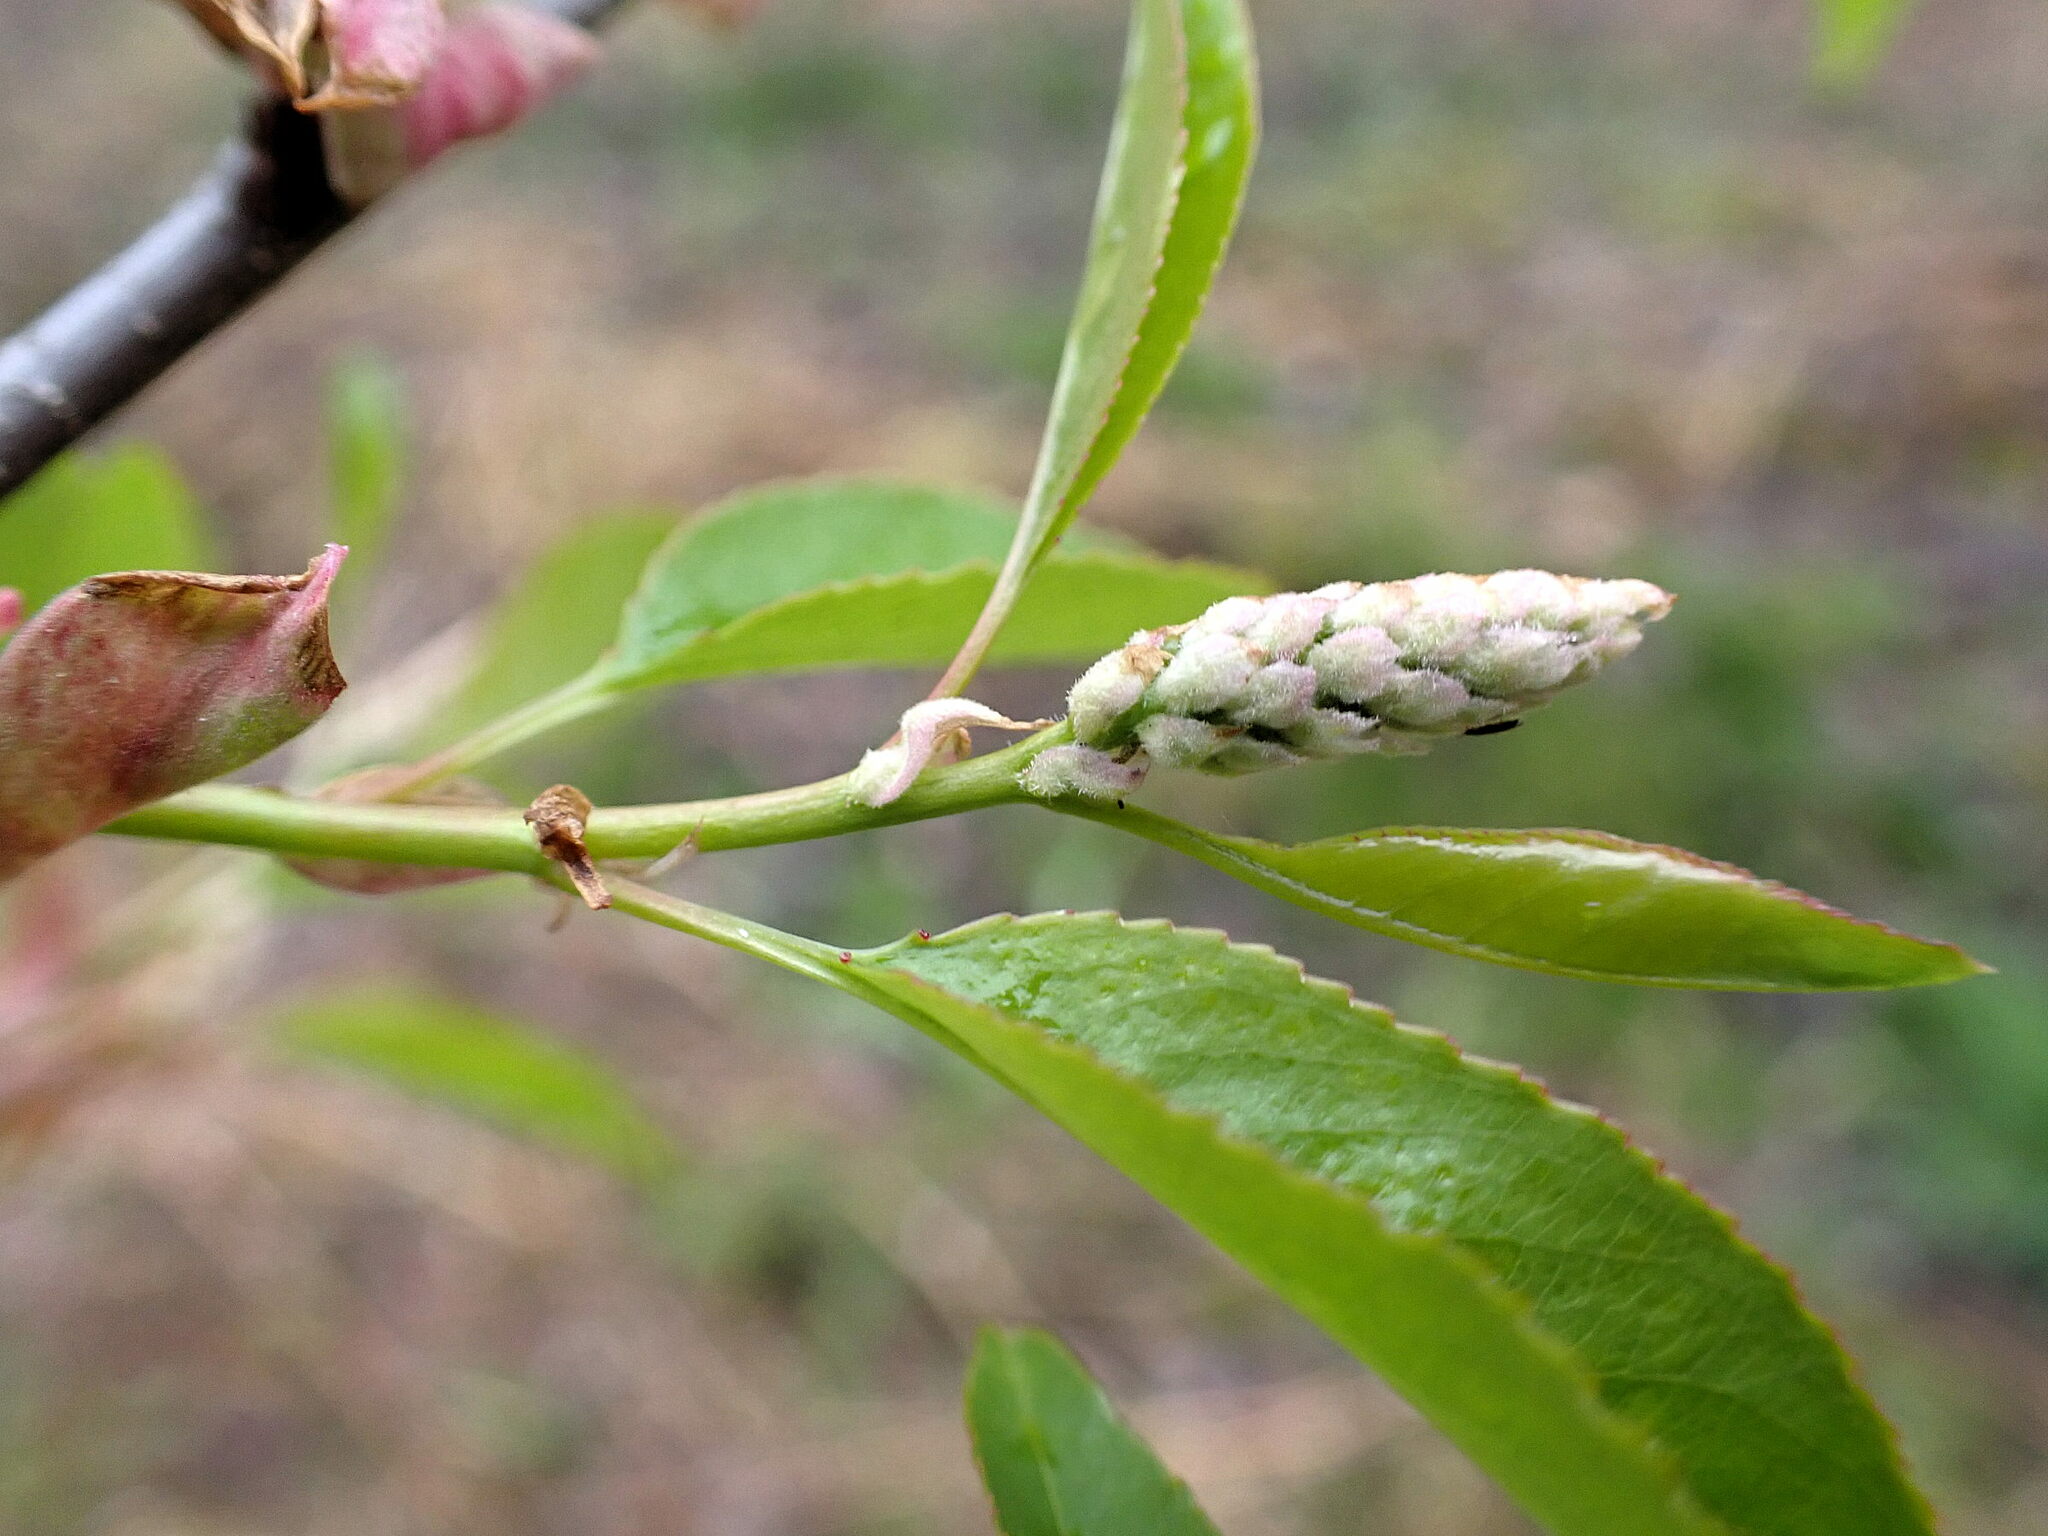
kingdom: Plantae
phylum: Tracheophyta
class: Magnoliopsida
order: Rosales
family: Rosaceae
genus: Prunus
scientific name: Prunus serotina
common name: Black cherry
